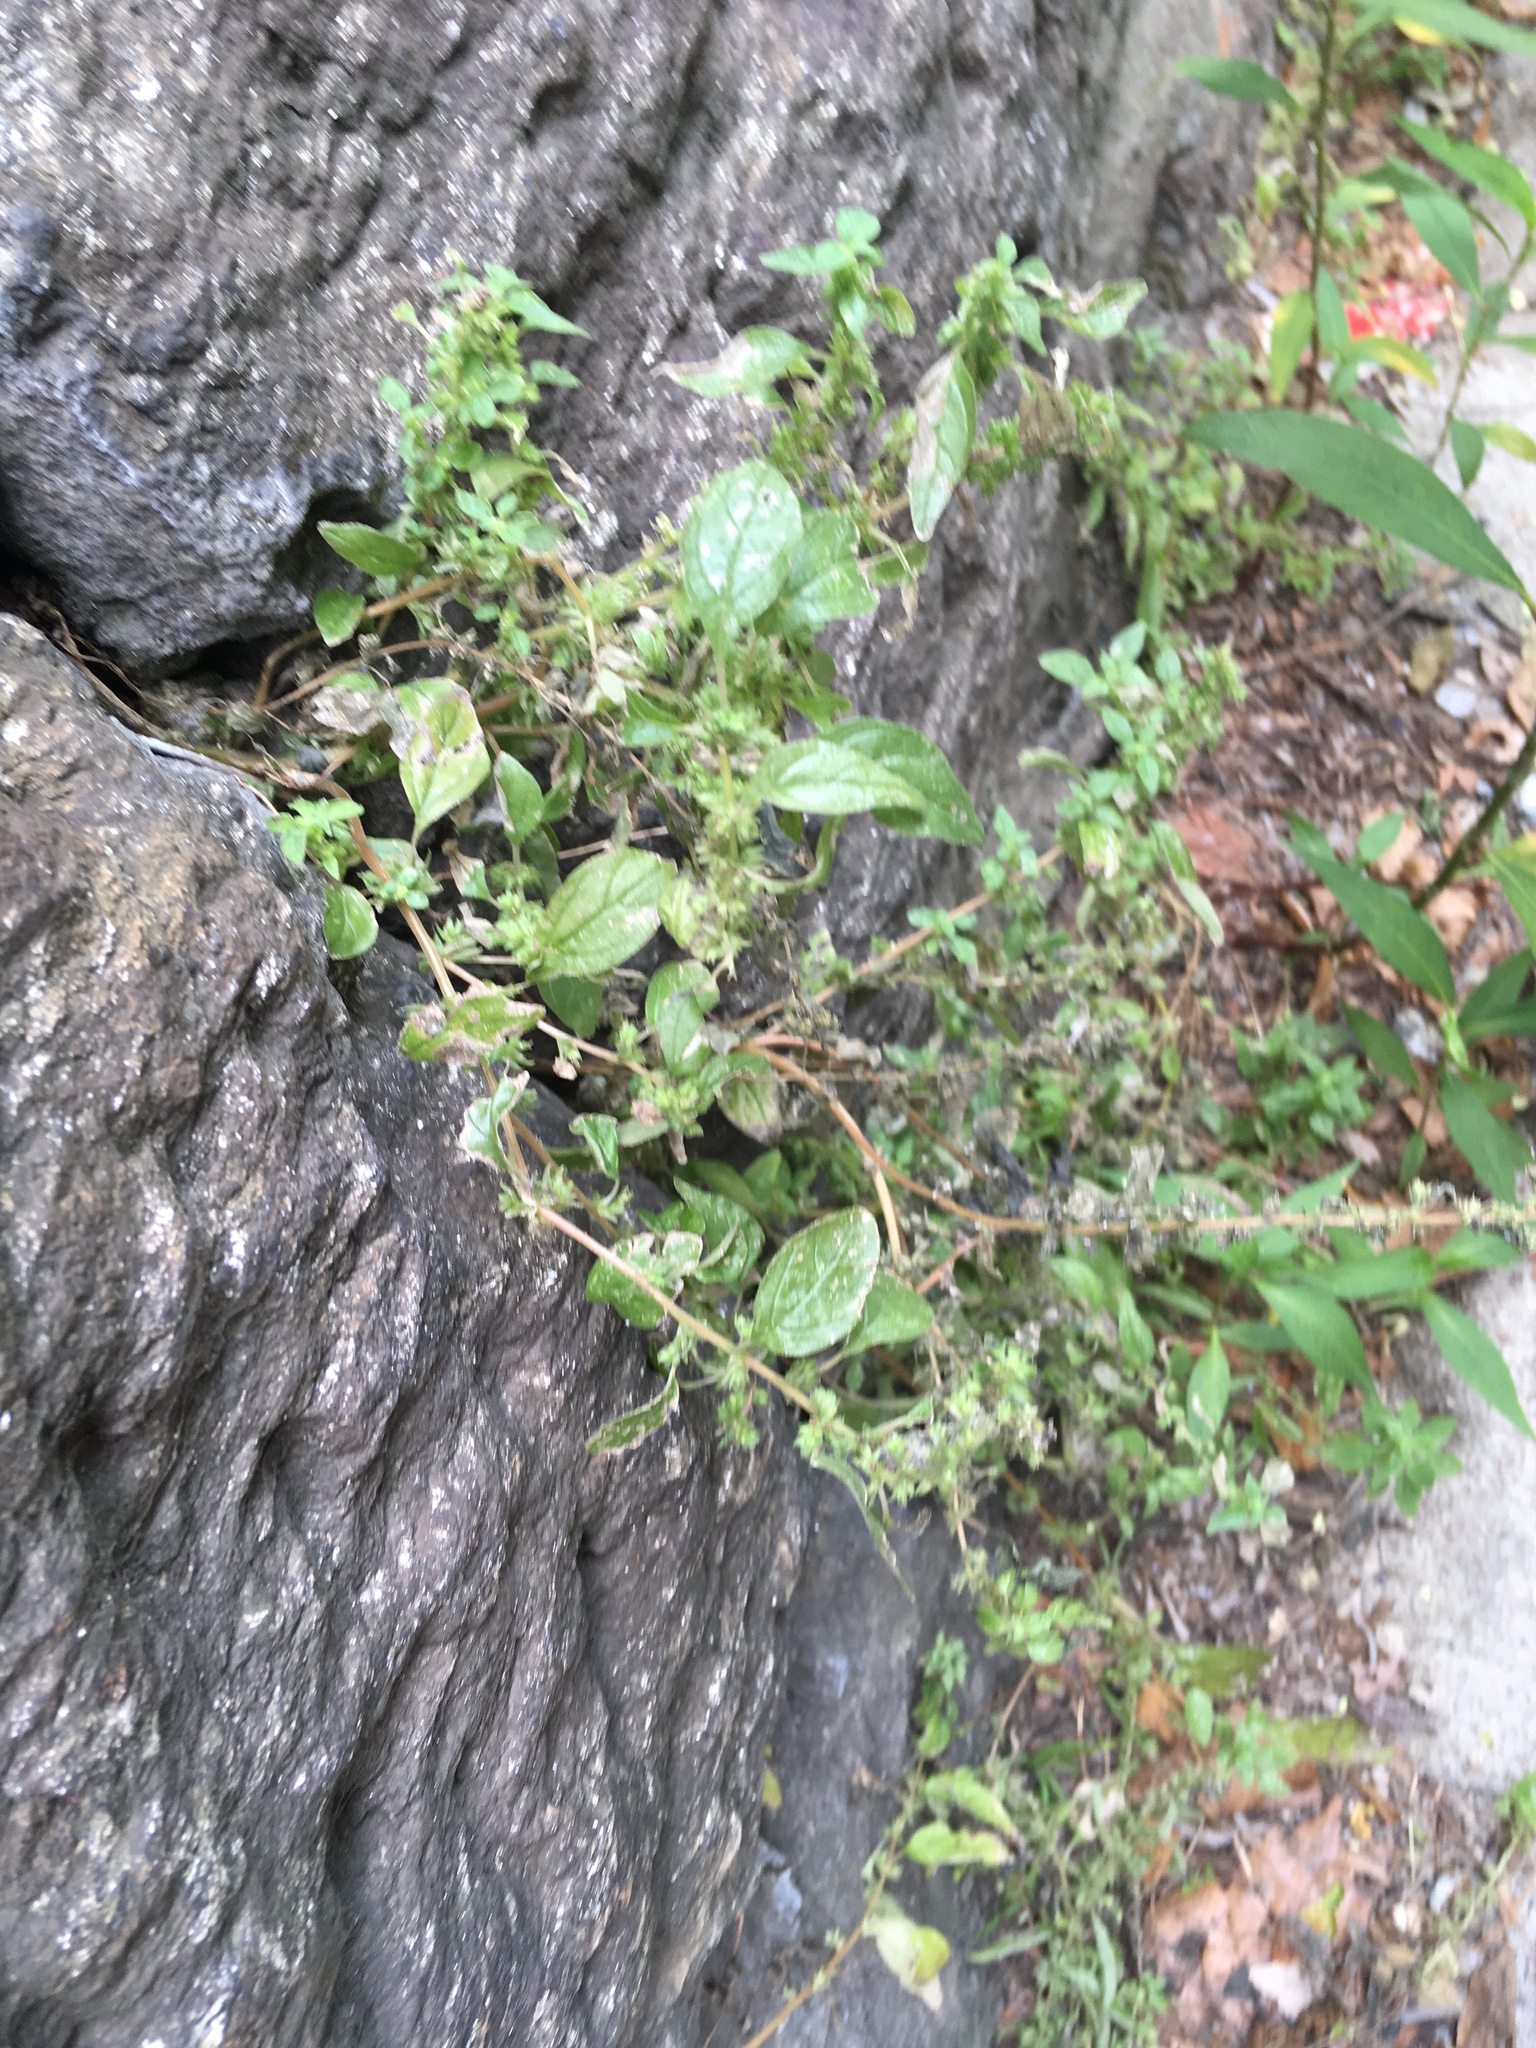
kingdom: Plantae
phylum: Tracheophyta
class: Magnoliopsida
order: Rosales
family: Urticaceae
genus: Parietaria
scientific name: Parietaria pensylvanica
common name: Pennsylvania pellitory
